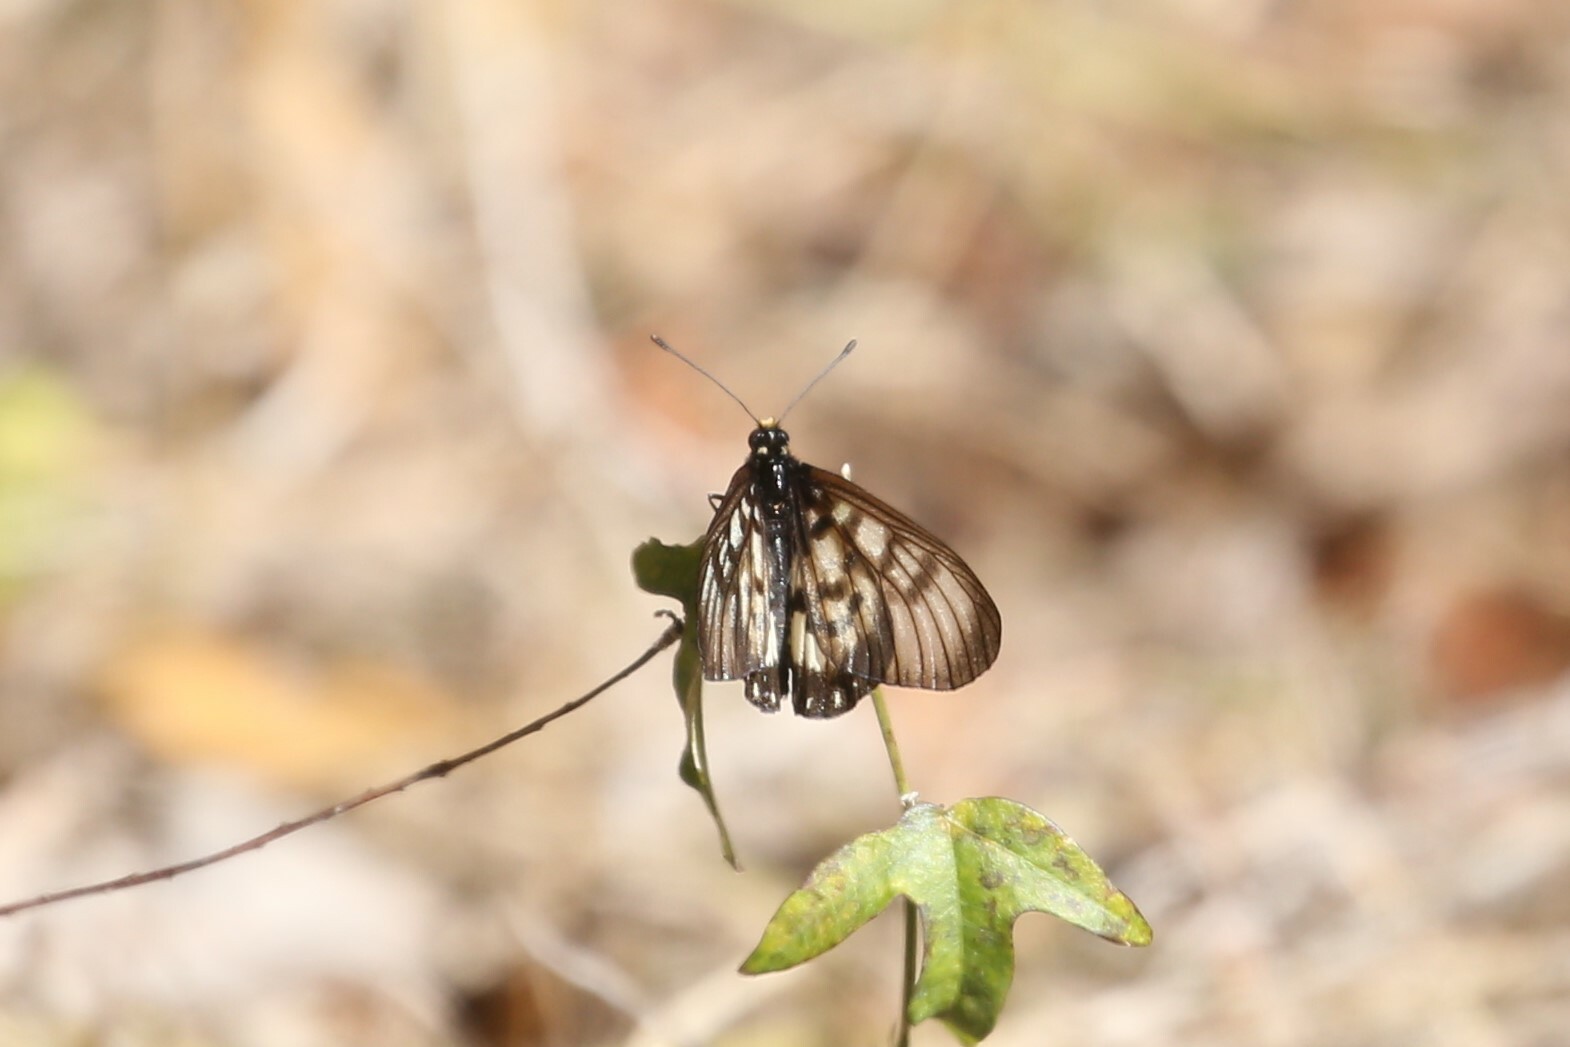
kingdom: Animalia
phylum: Arthropoda
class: Insecta
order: Lepidoptera
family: Nymphalidae
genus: Acraea
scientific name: Acraea andromacha
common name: Glasswing
